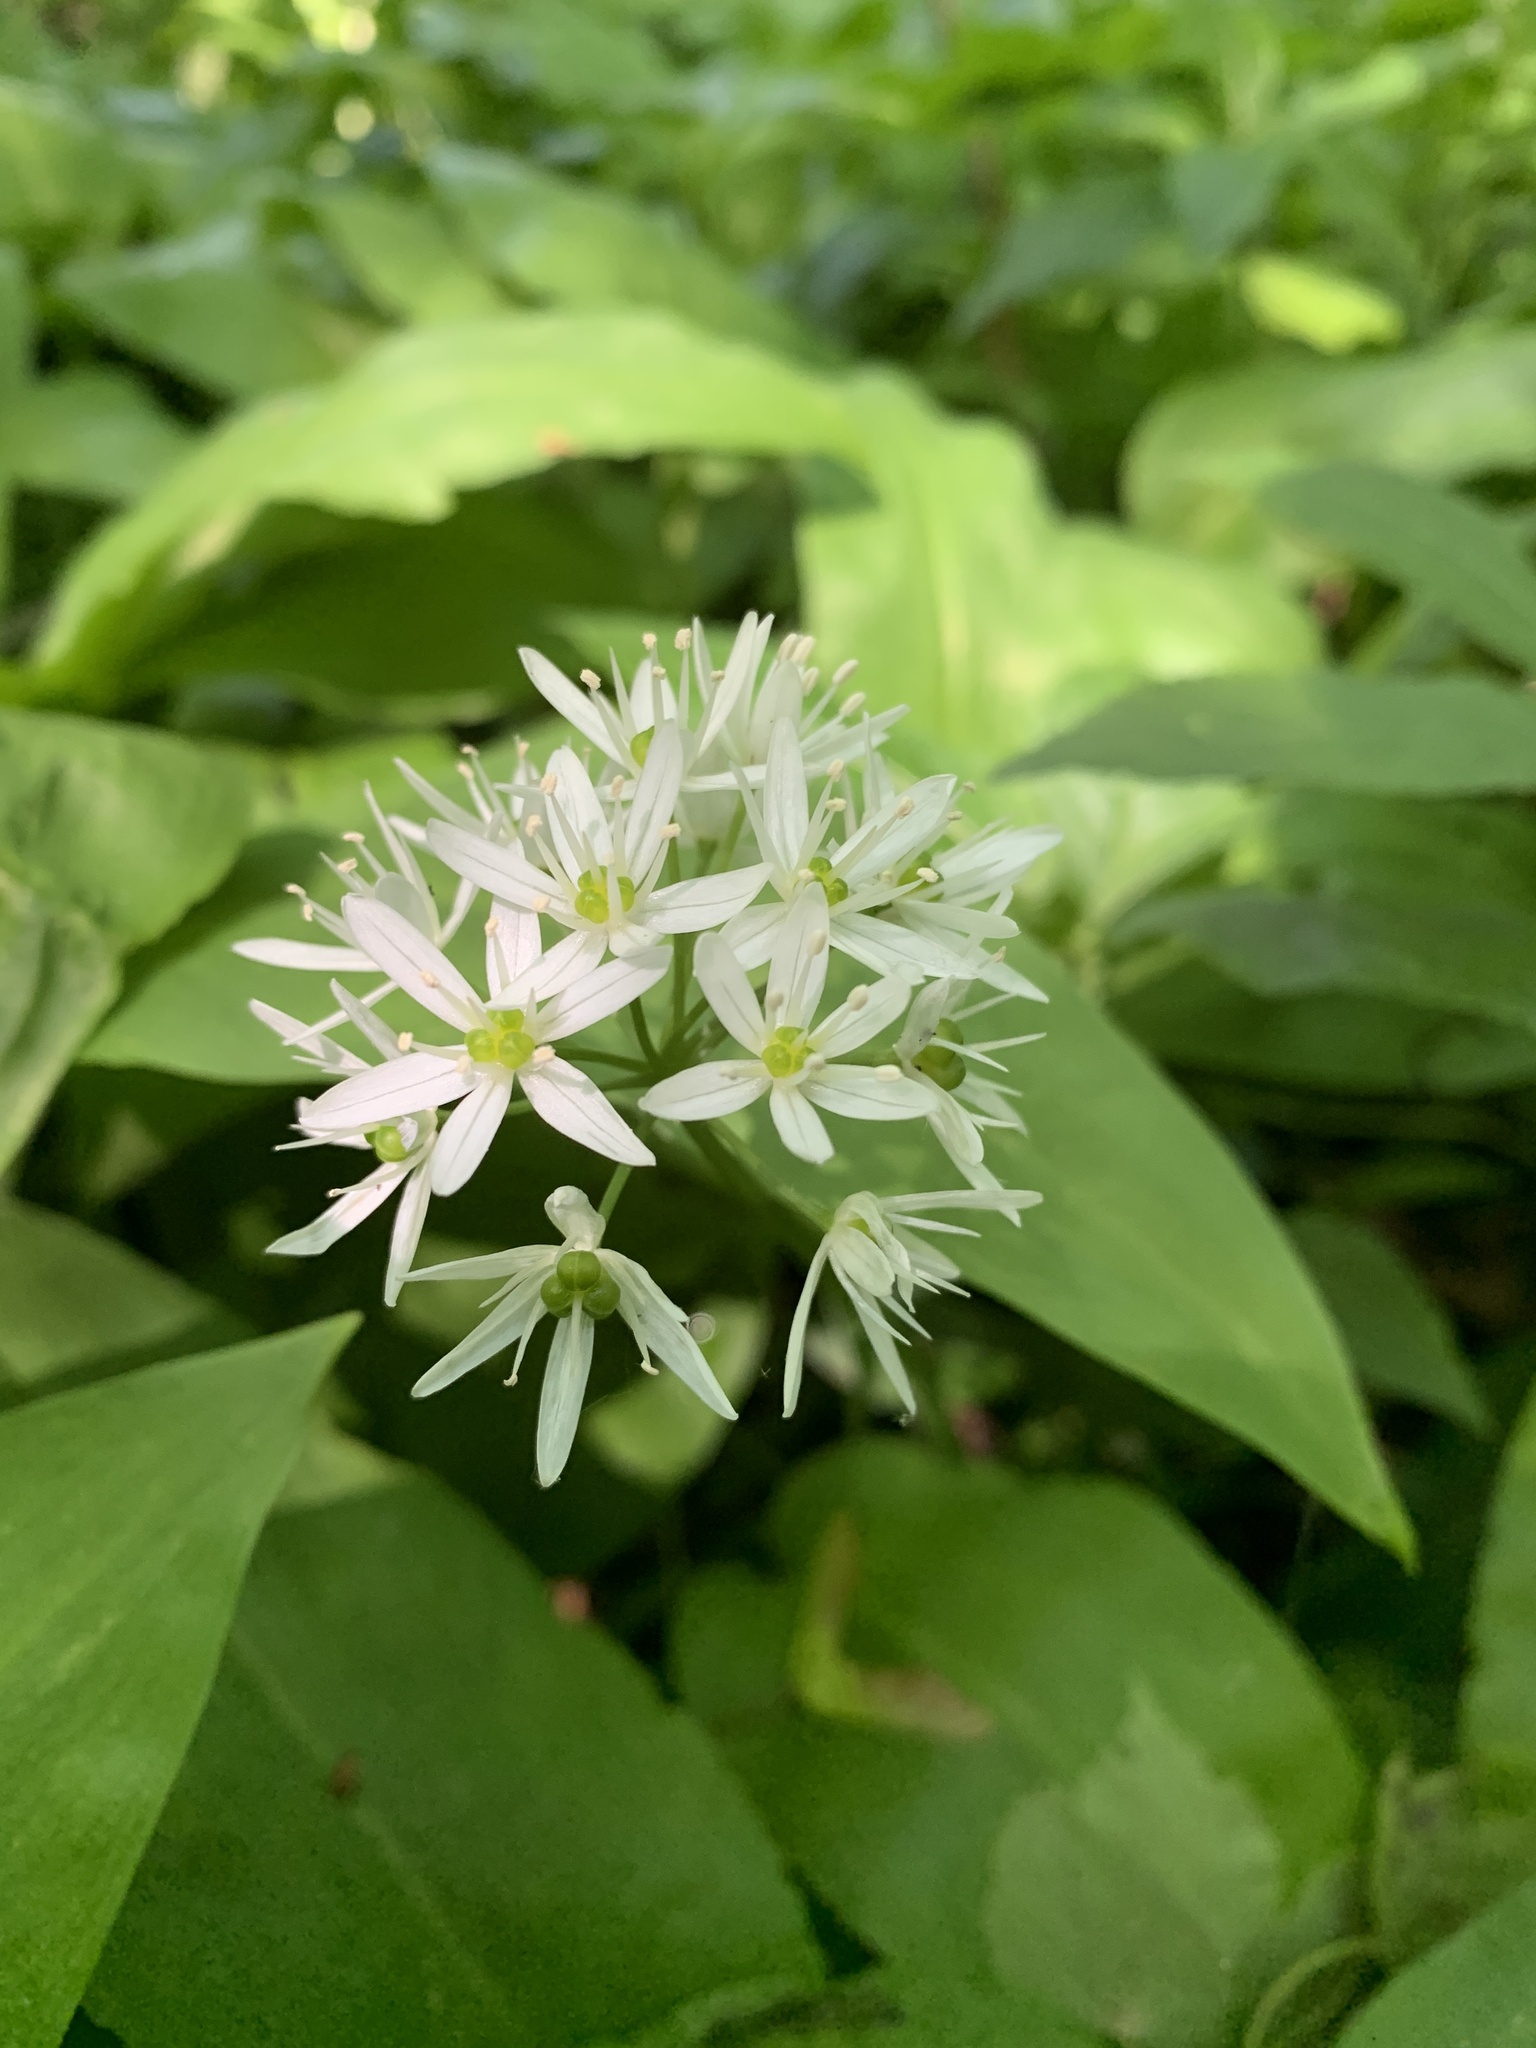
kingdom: Plantae
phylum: Tracheophyta
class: Liliopsida
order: Asparagales
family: Amaryllidaceae
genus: Allium
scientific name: Allium ursinum
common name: Ramsons
